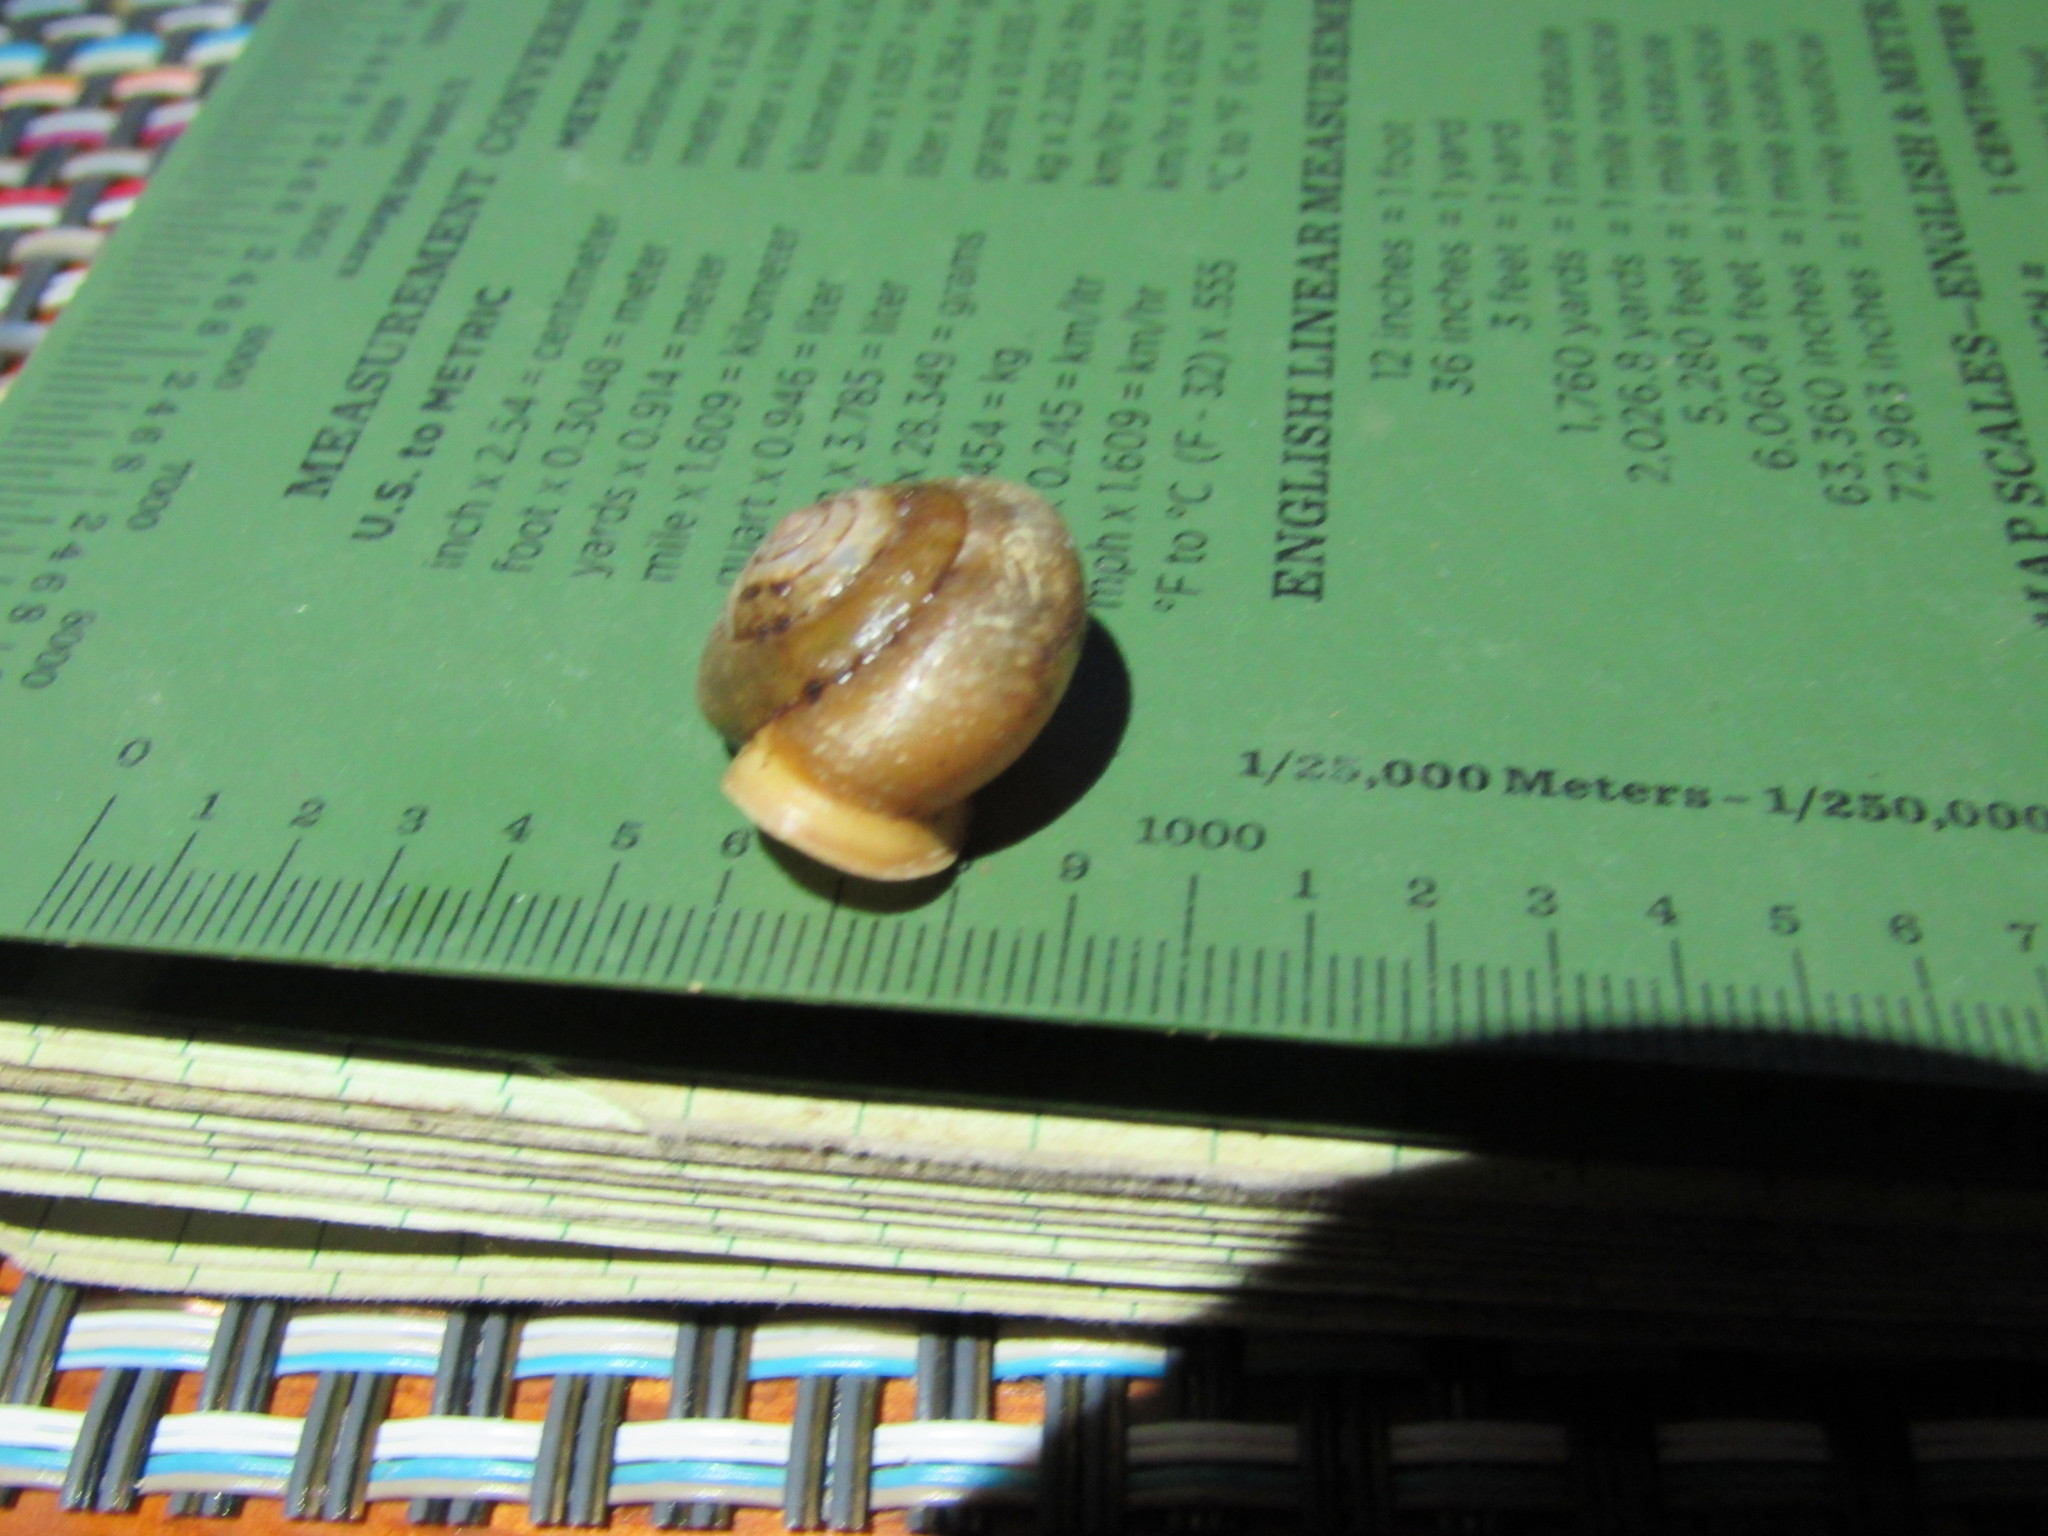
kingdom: Animalia
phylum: Mollusca
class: Gastropoda
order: Stylommatophora
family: Polygyridae
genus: Cryptomastix
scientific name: Cryptomastix devia
